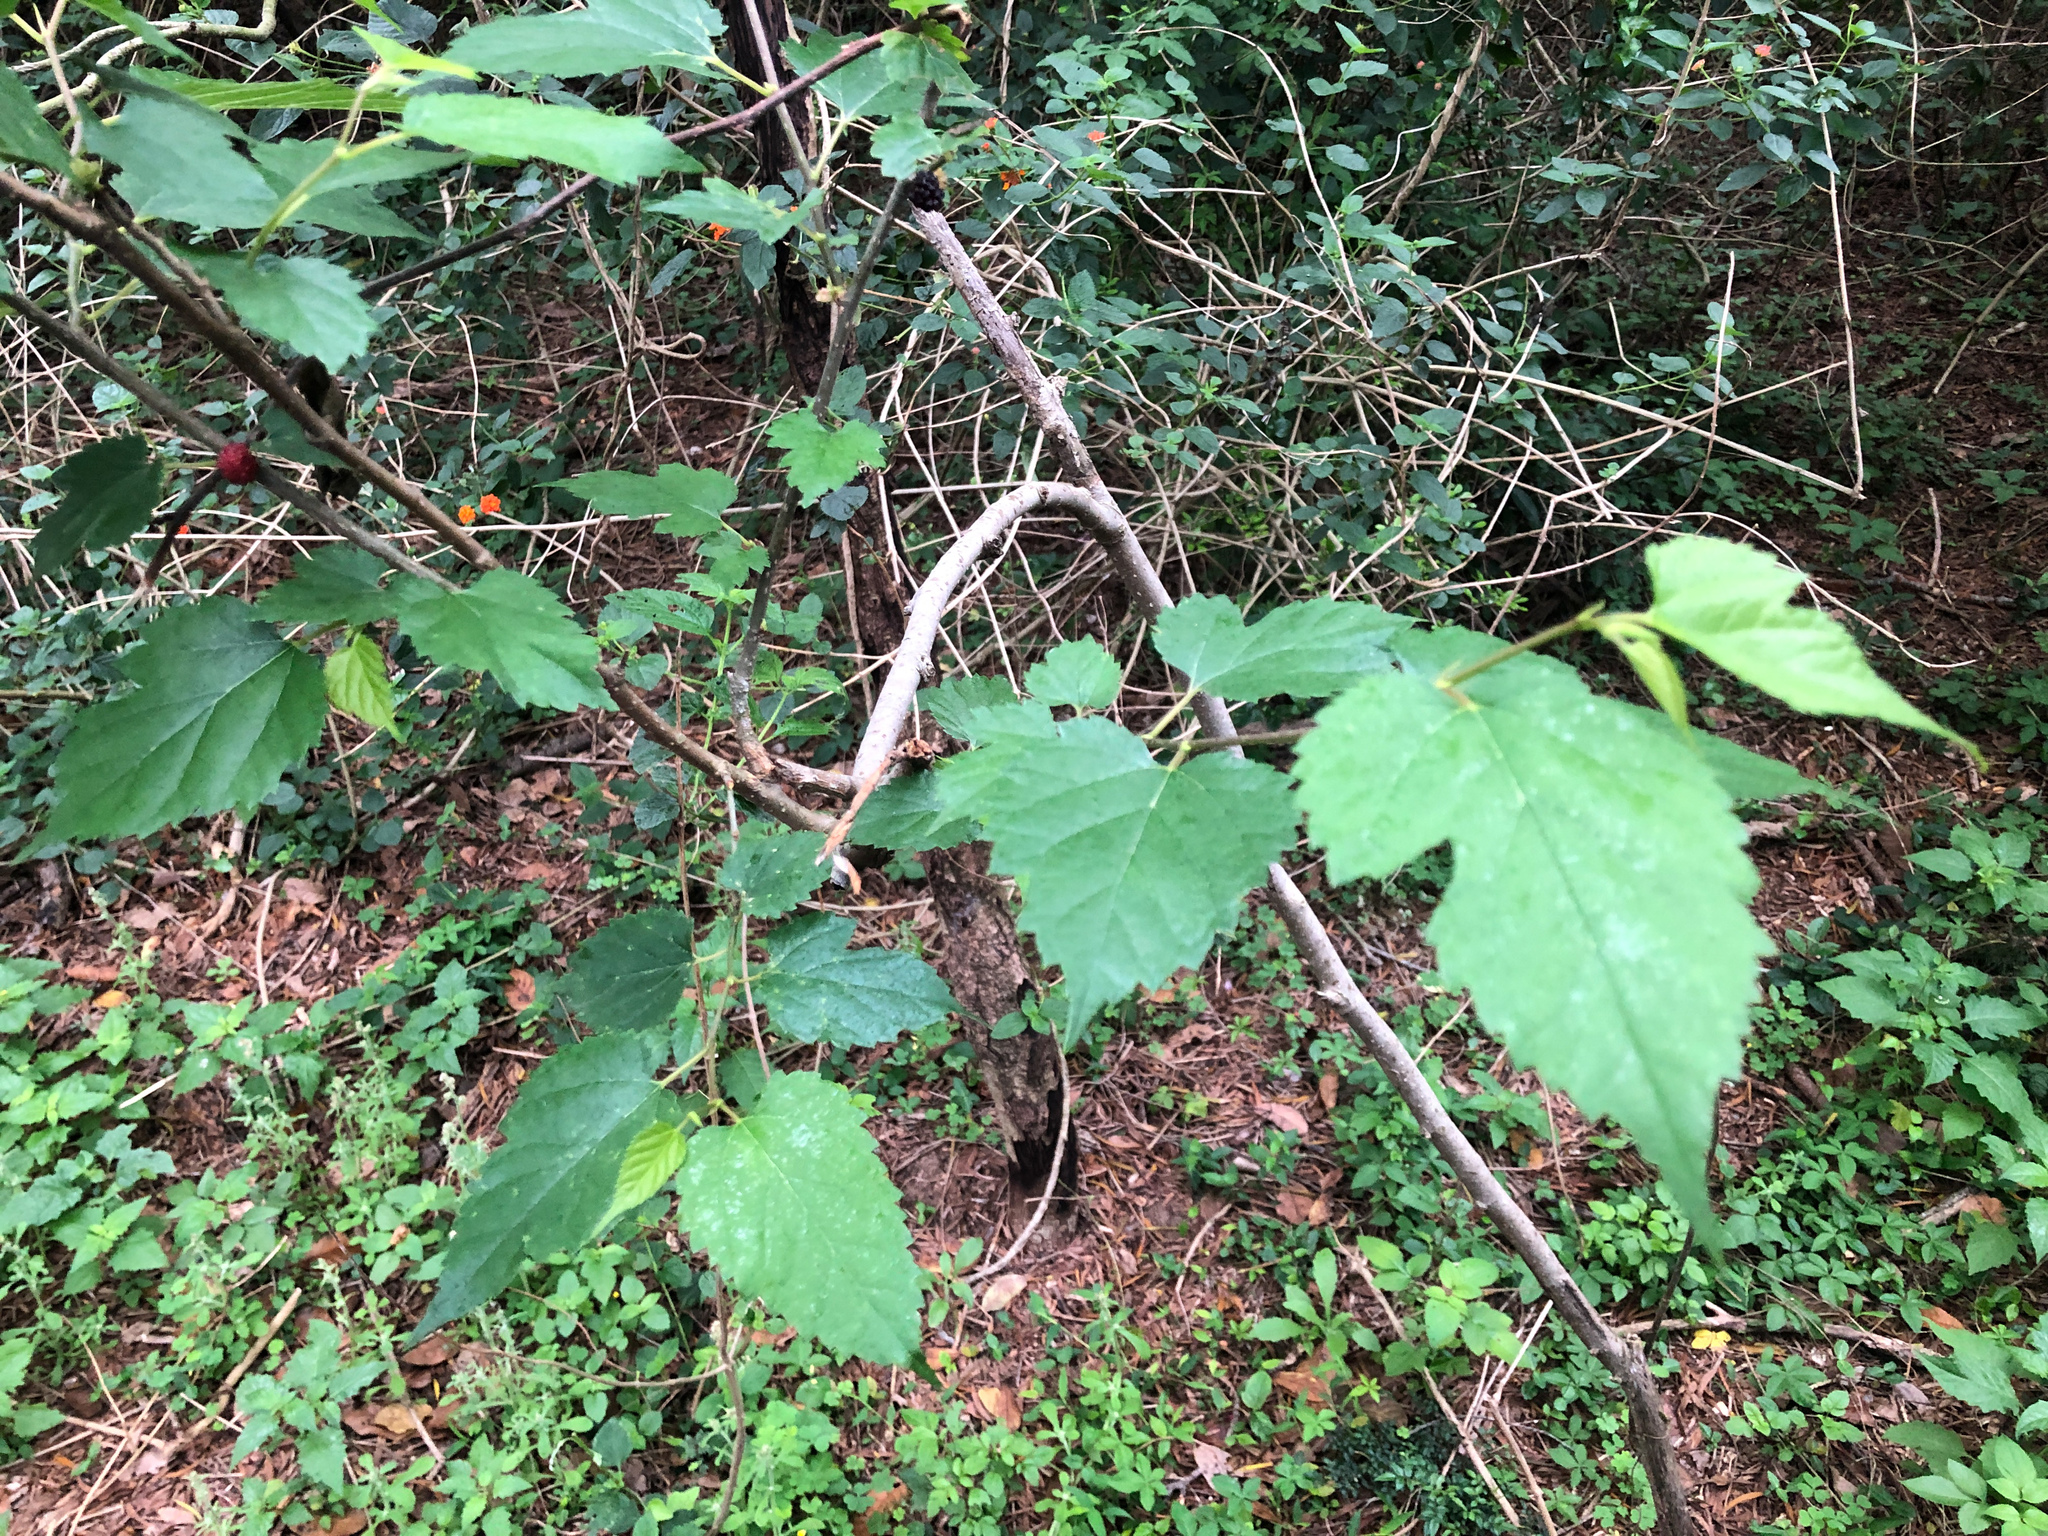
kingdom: Plantae
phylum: Tracheophyta
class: Magnoliopsida
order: Rosales
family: Moraceae
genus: Morus
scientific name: Morus indica
